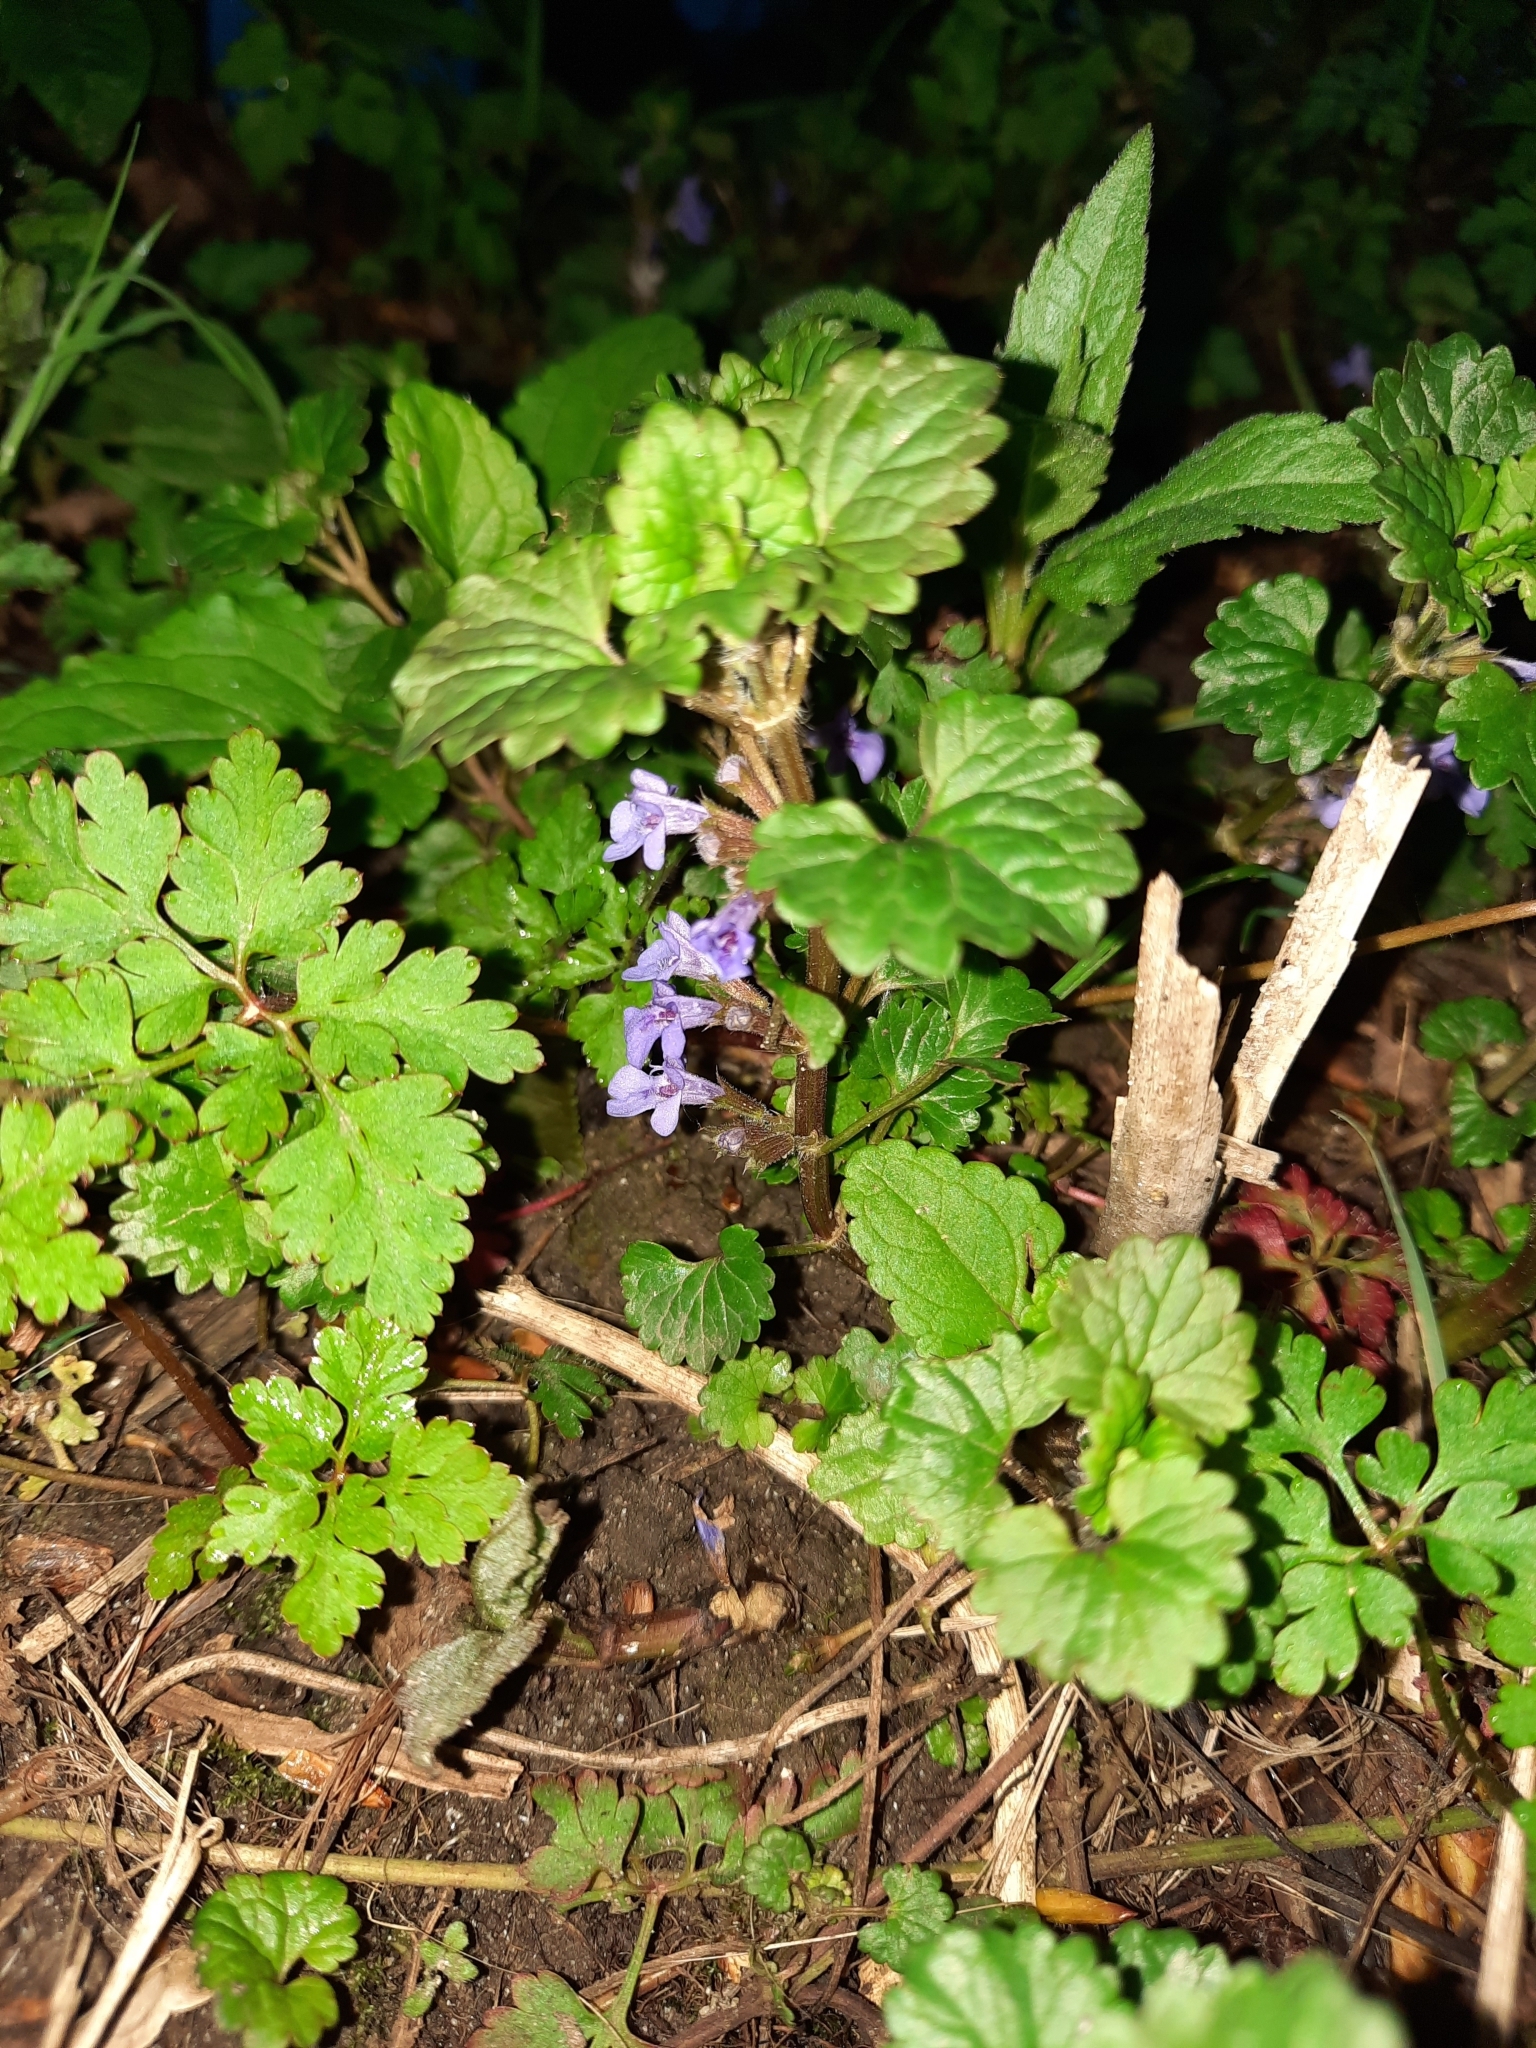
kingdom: Plantae
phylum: Tracheophyta
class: Magnoliopsida
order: Lamiales
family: Lamiaceae
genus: Glechoma
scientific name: Glechoma hederacea
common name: Ground ivy
